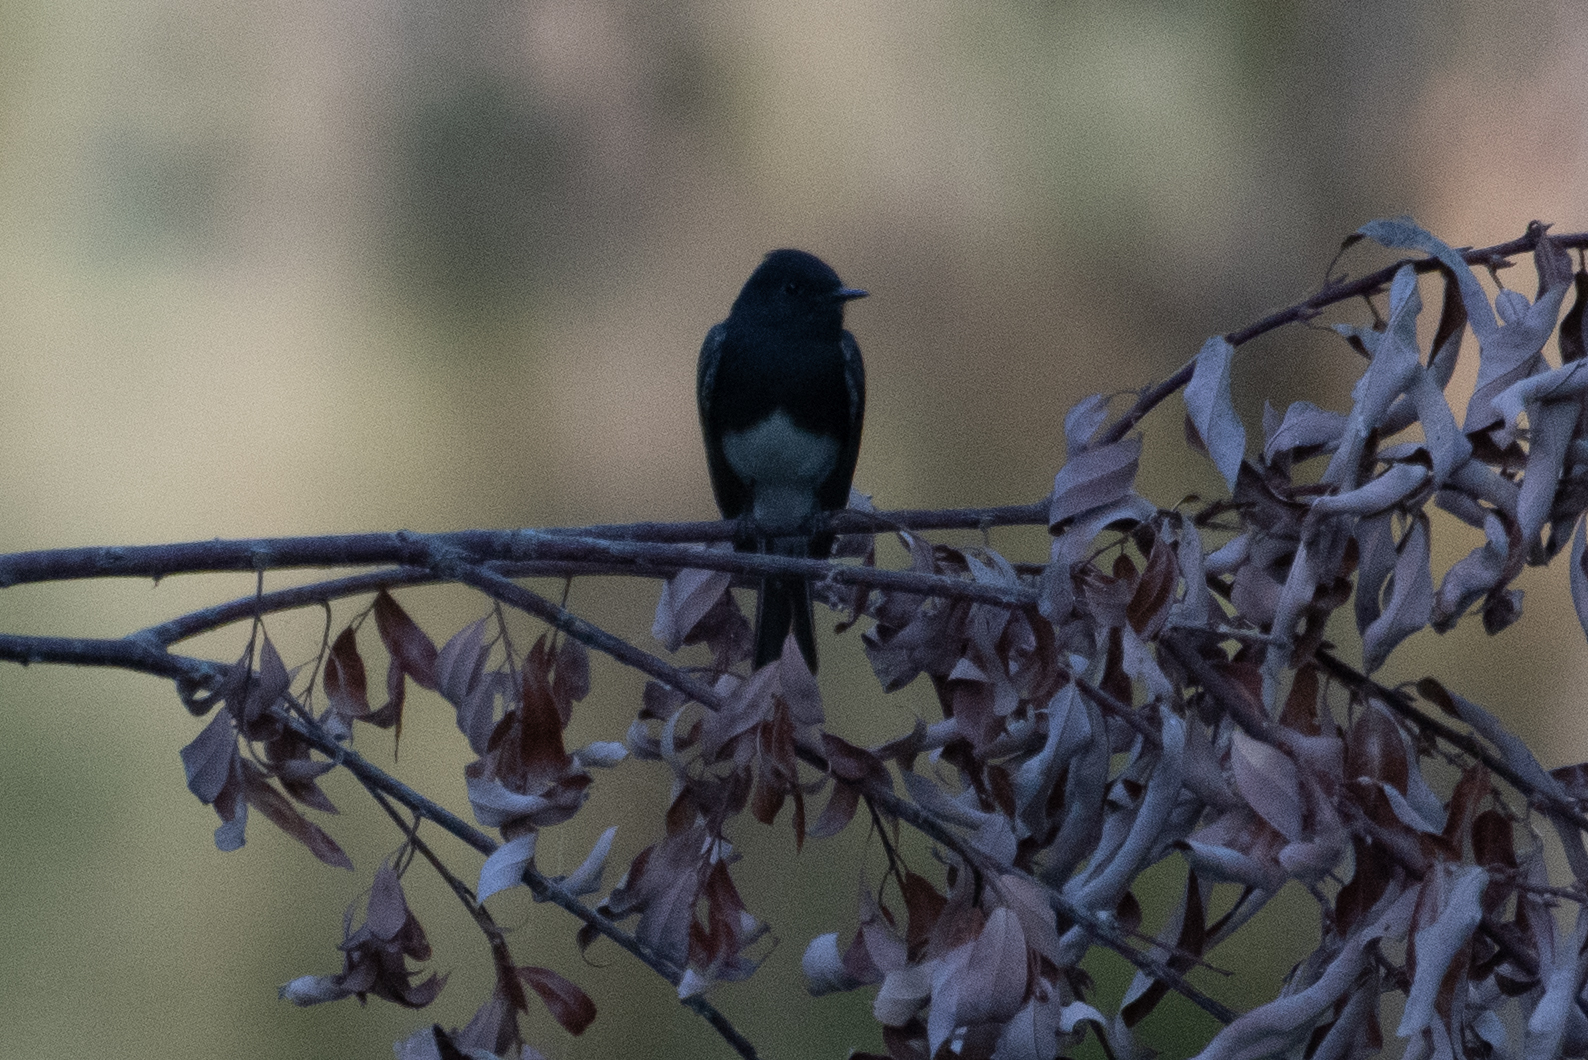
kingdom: Animalia
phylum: Chordata
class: Aves
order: Passeriformes
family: Tyrannidae
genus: Sayornis
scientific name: Sayornis nigricans
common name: Black phoebe
